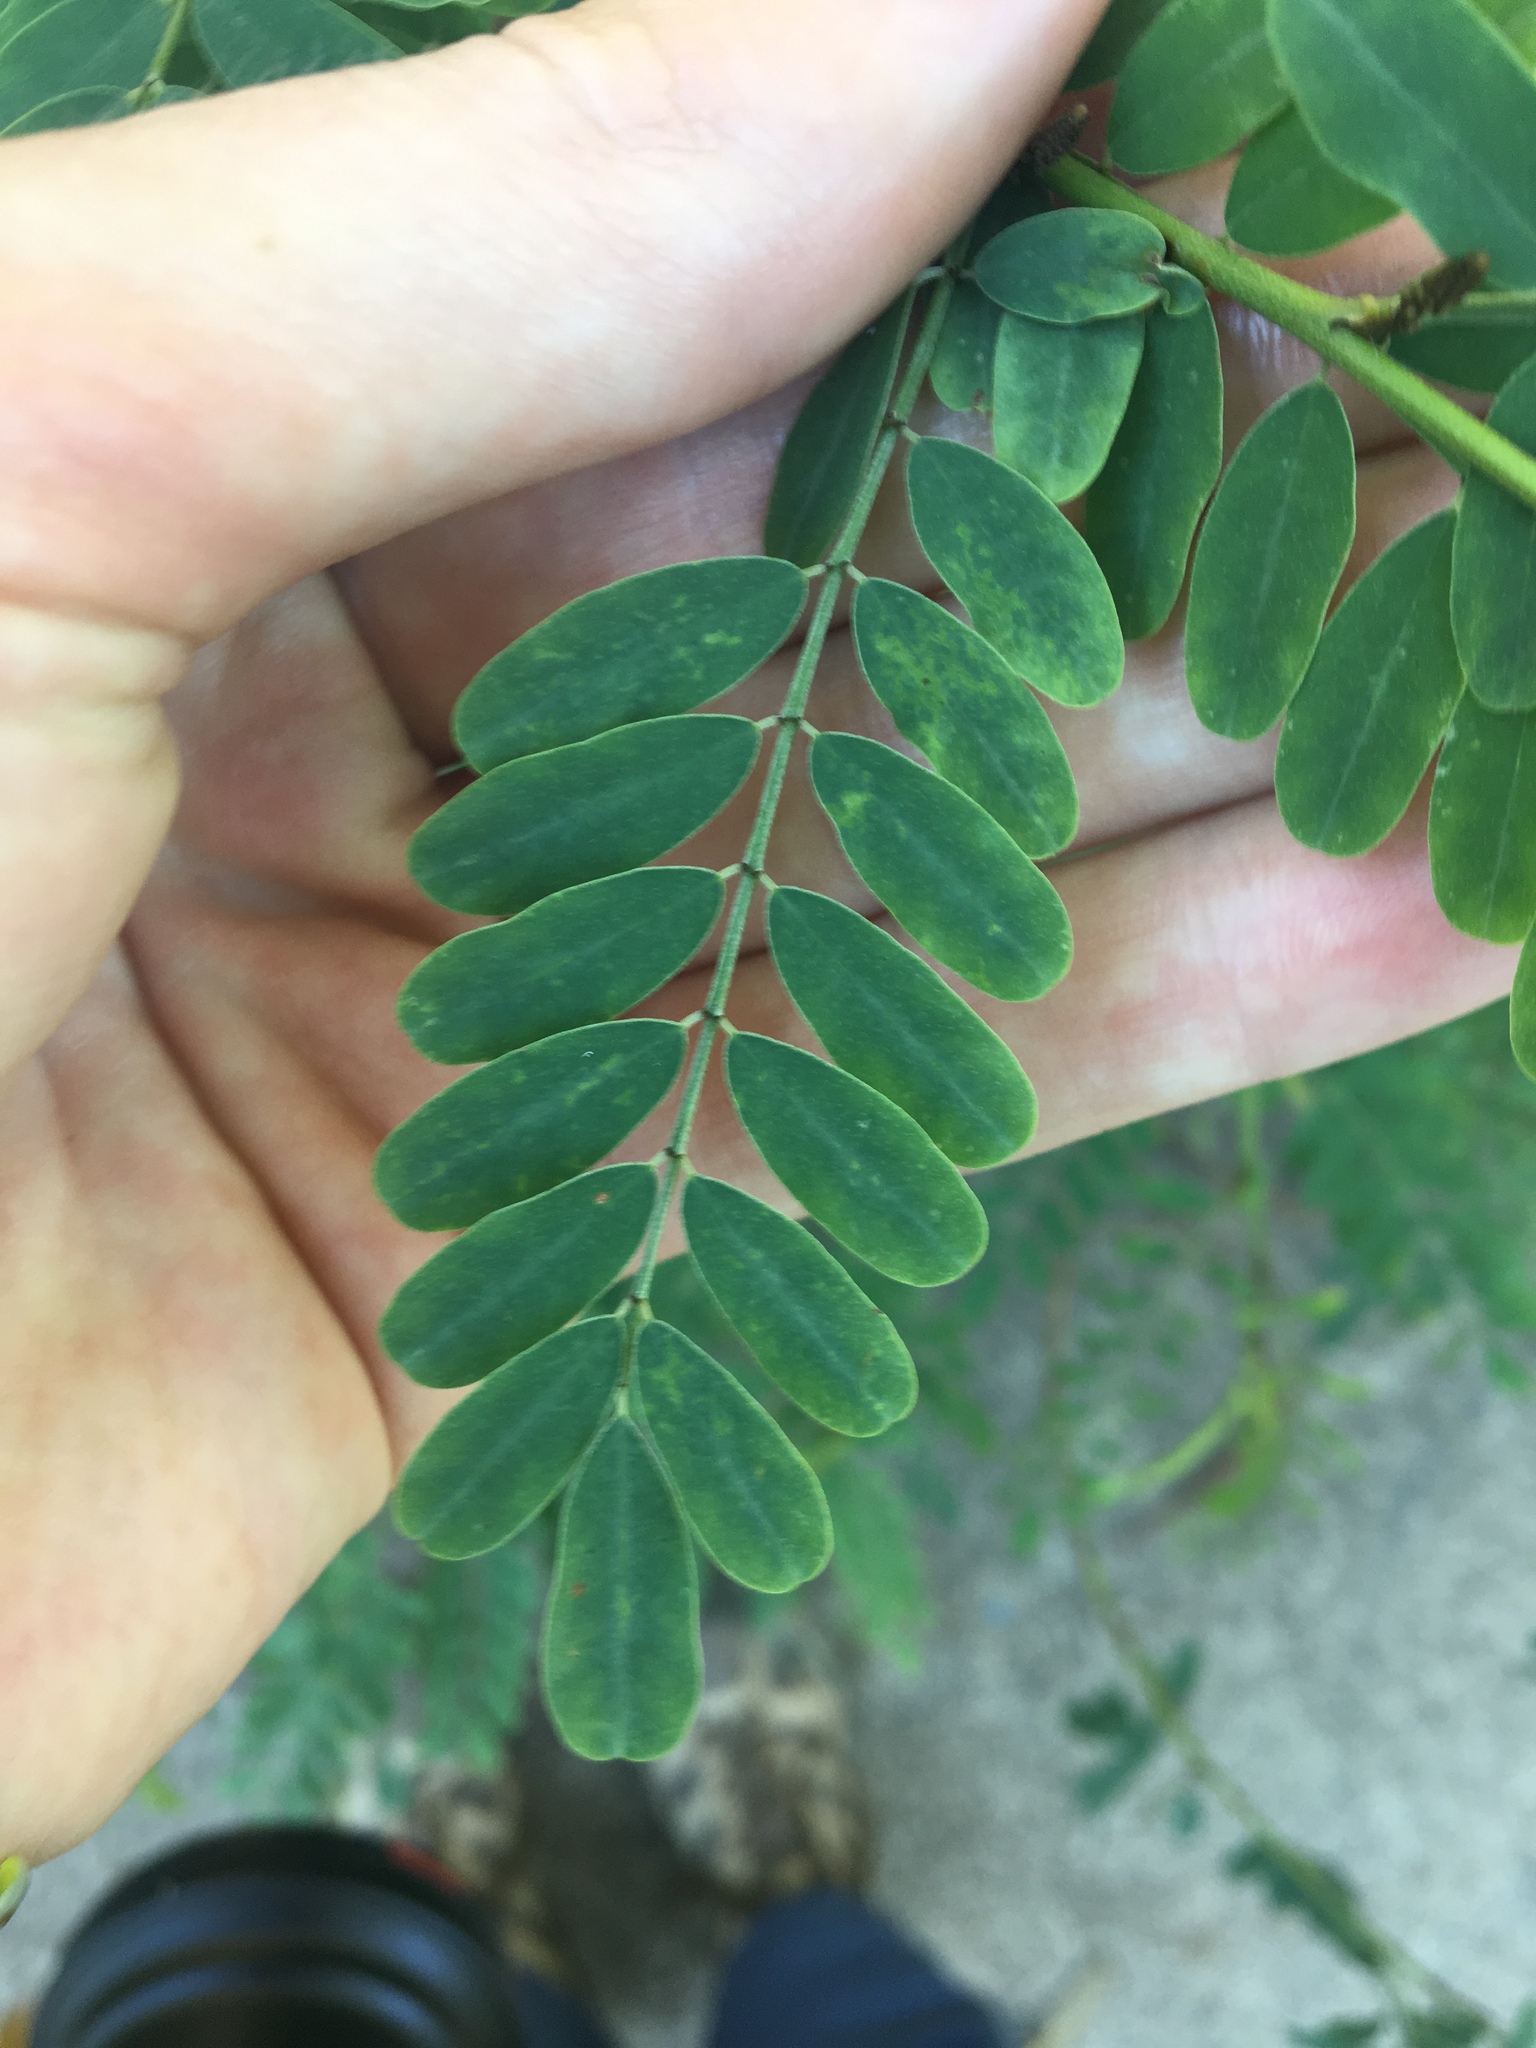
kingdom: Plantae
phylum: Tracheophyta
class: Magnoliopsida
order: Fabales
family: Fabaceae
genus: Indigofera
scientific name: Indigofera australis
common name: Australian indigo
